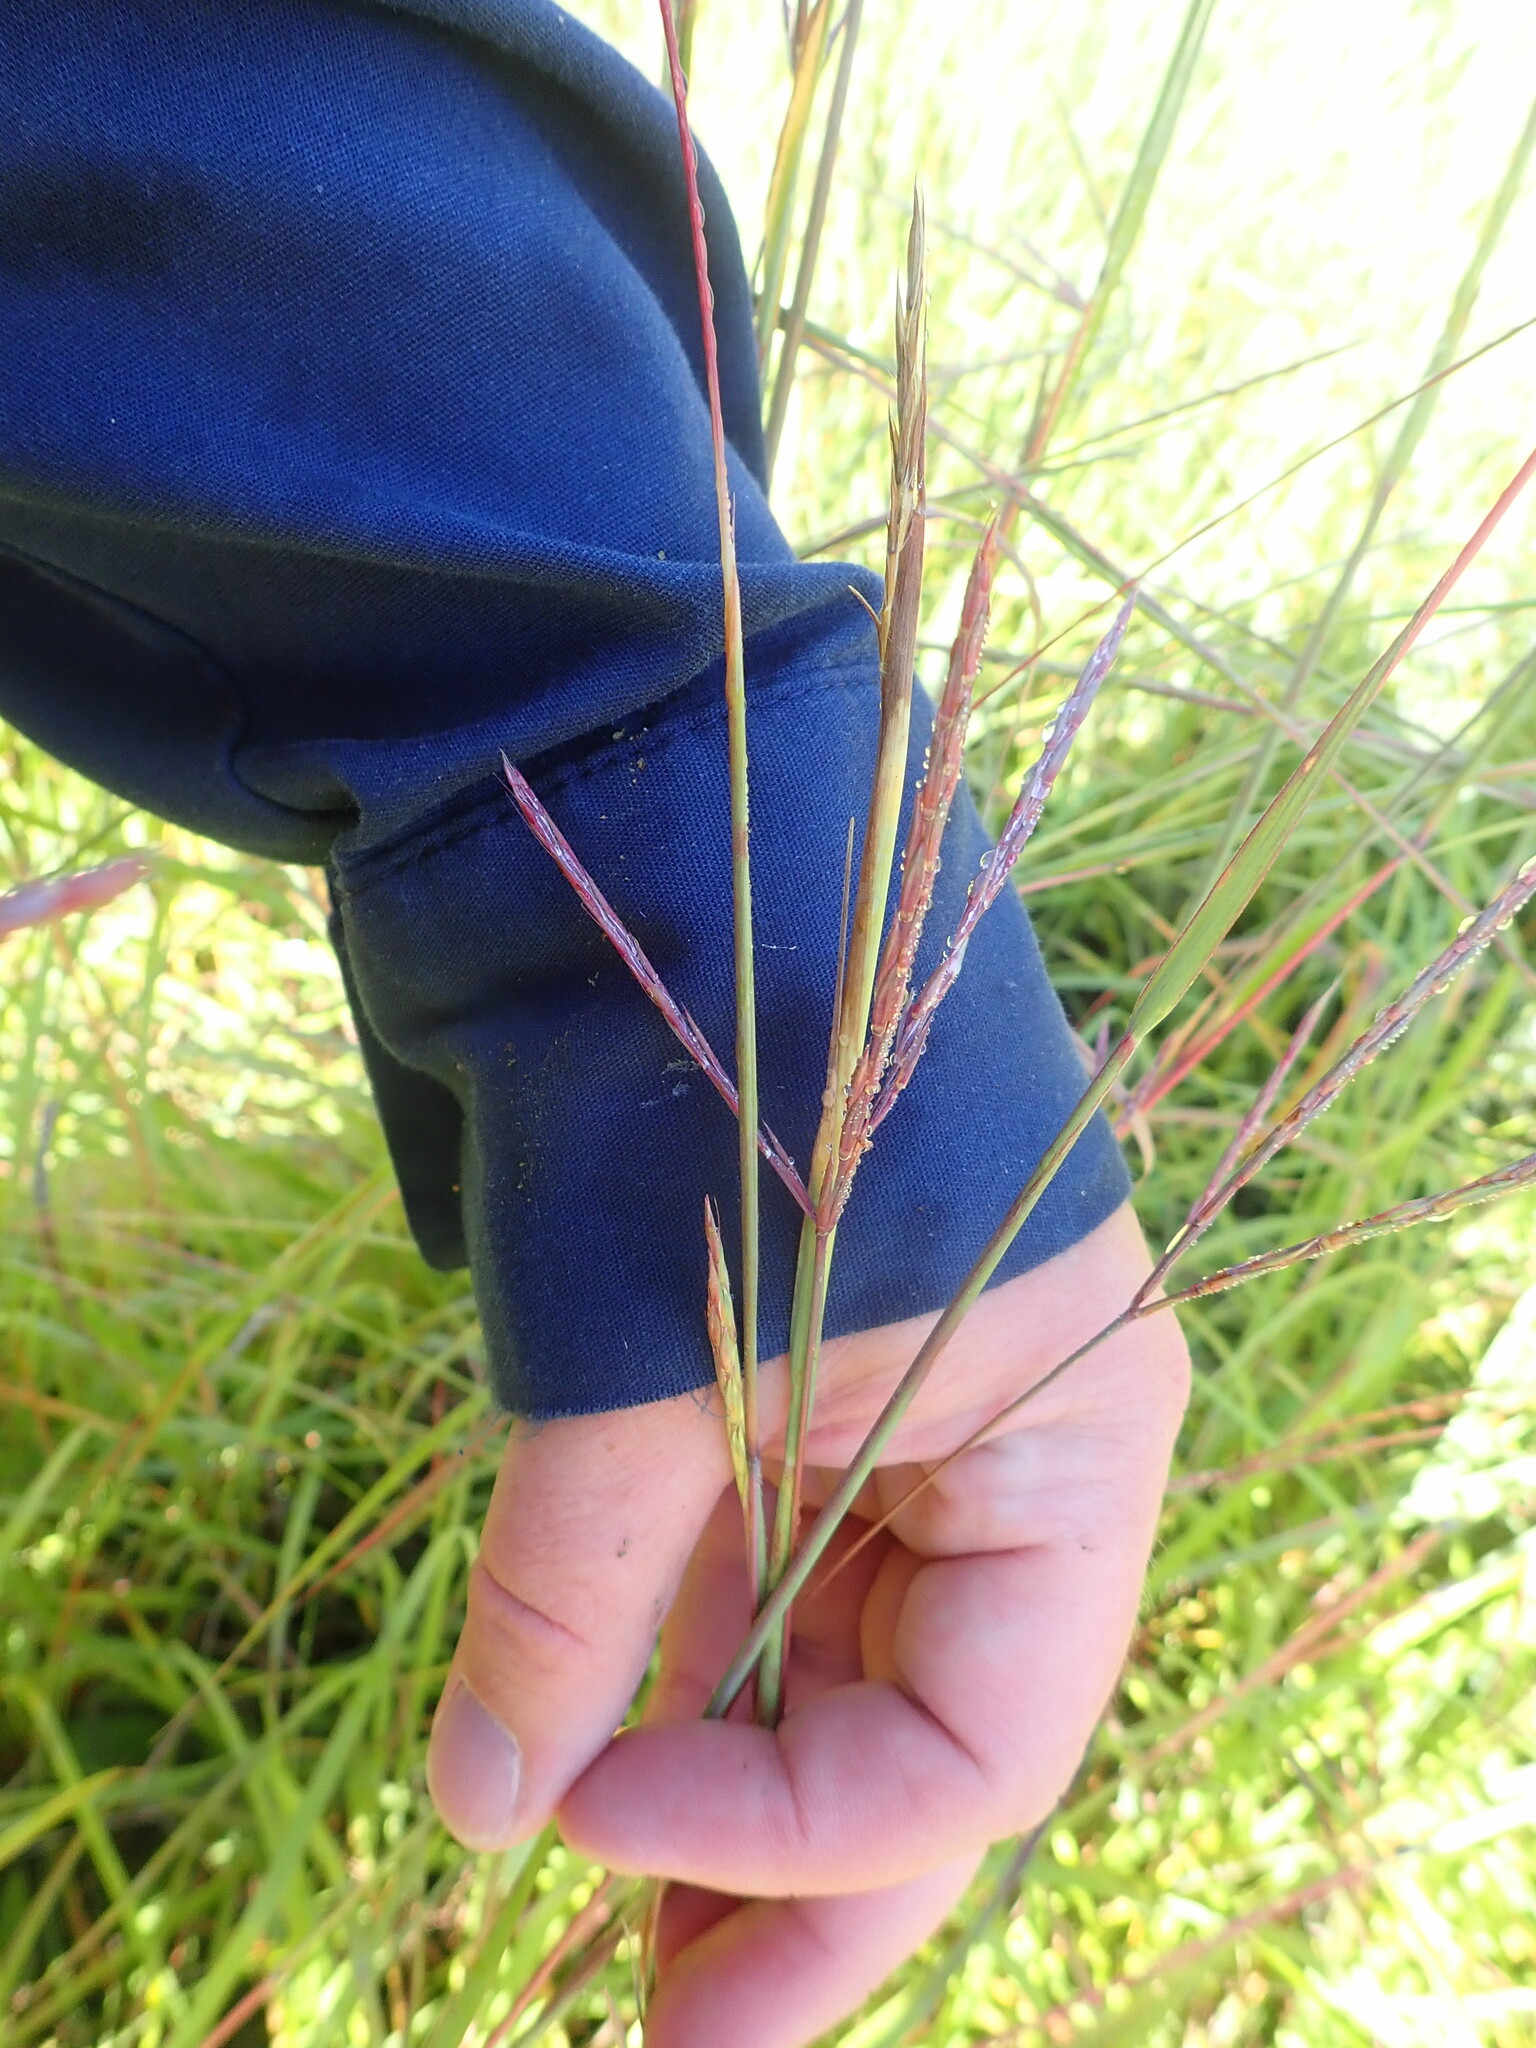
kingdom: Plantae
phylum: Tracheophyta
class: Liliopsida
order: Poales
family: Poaceae
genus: Andropogon
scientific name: Andropogon gerardi
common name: Big bluestem
